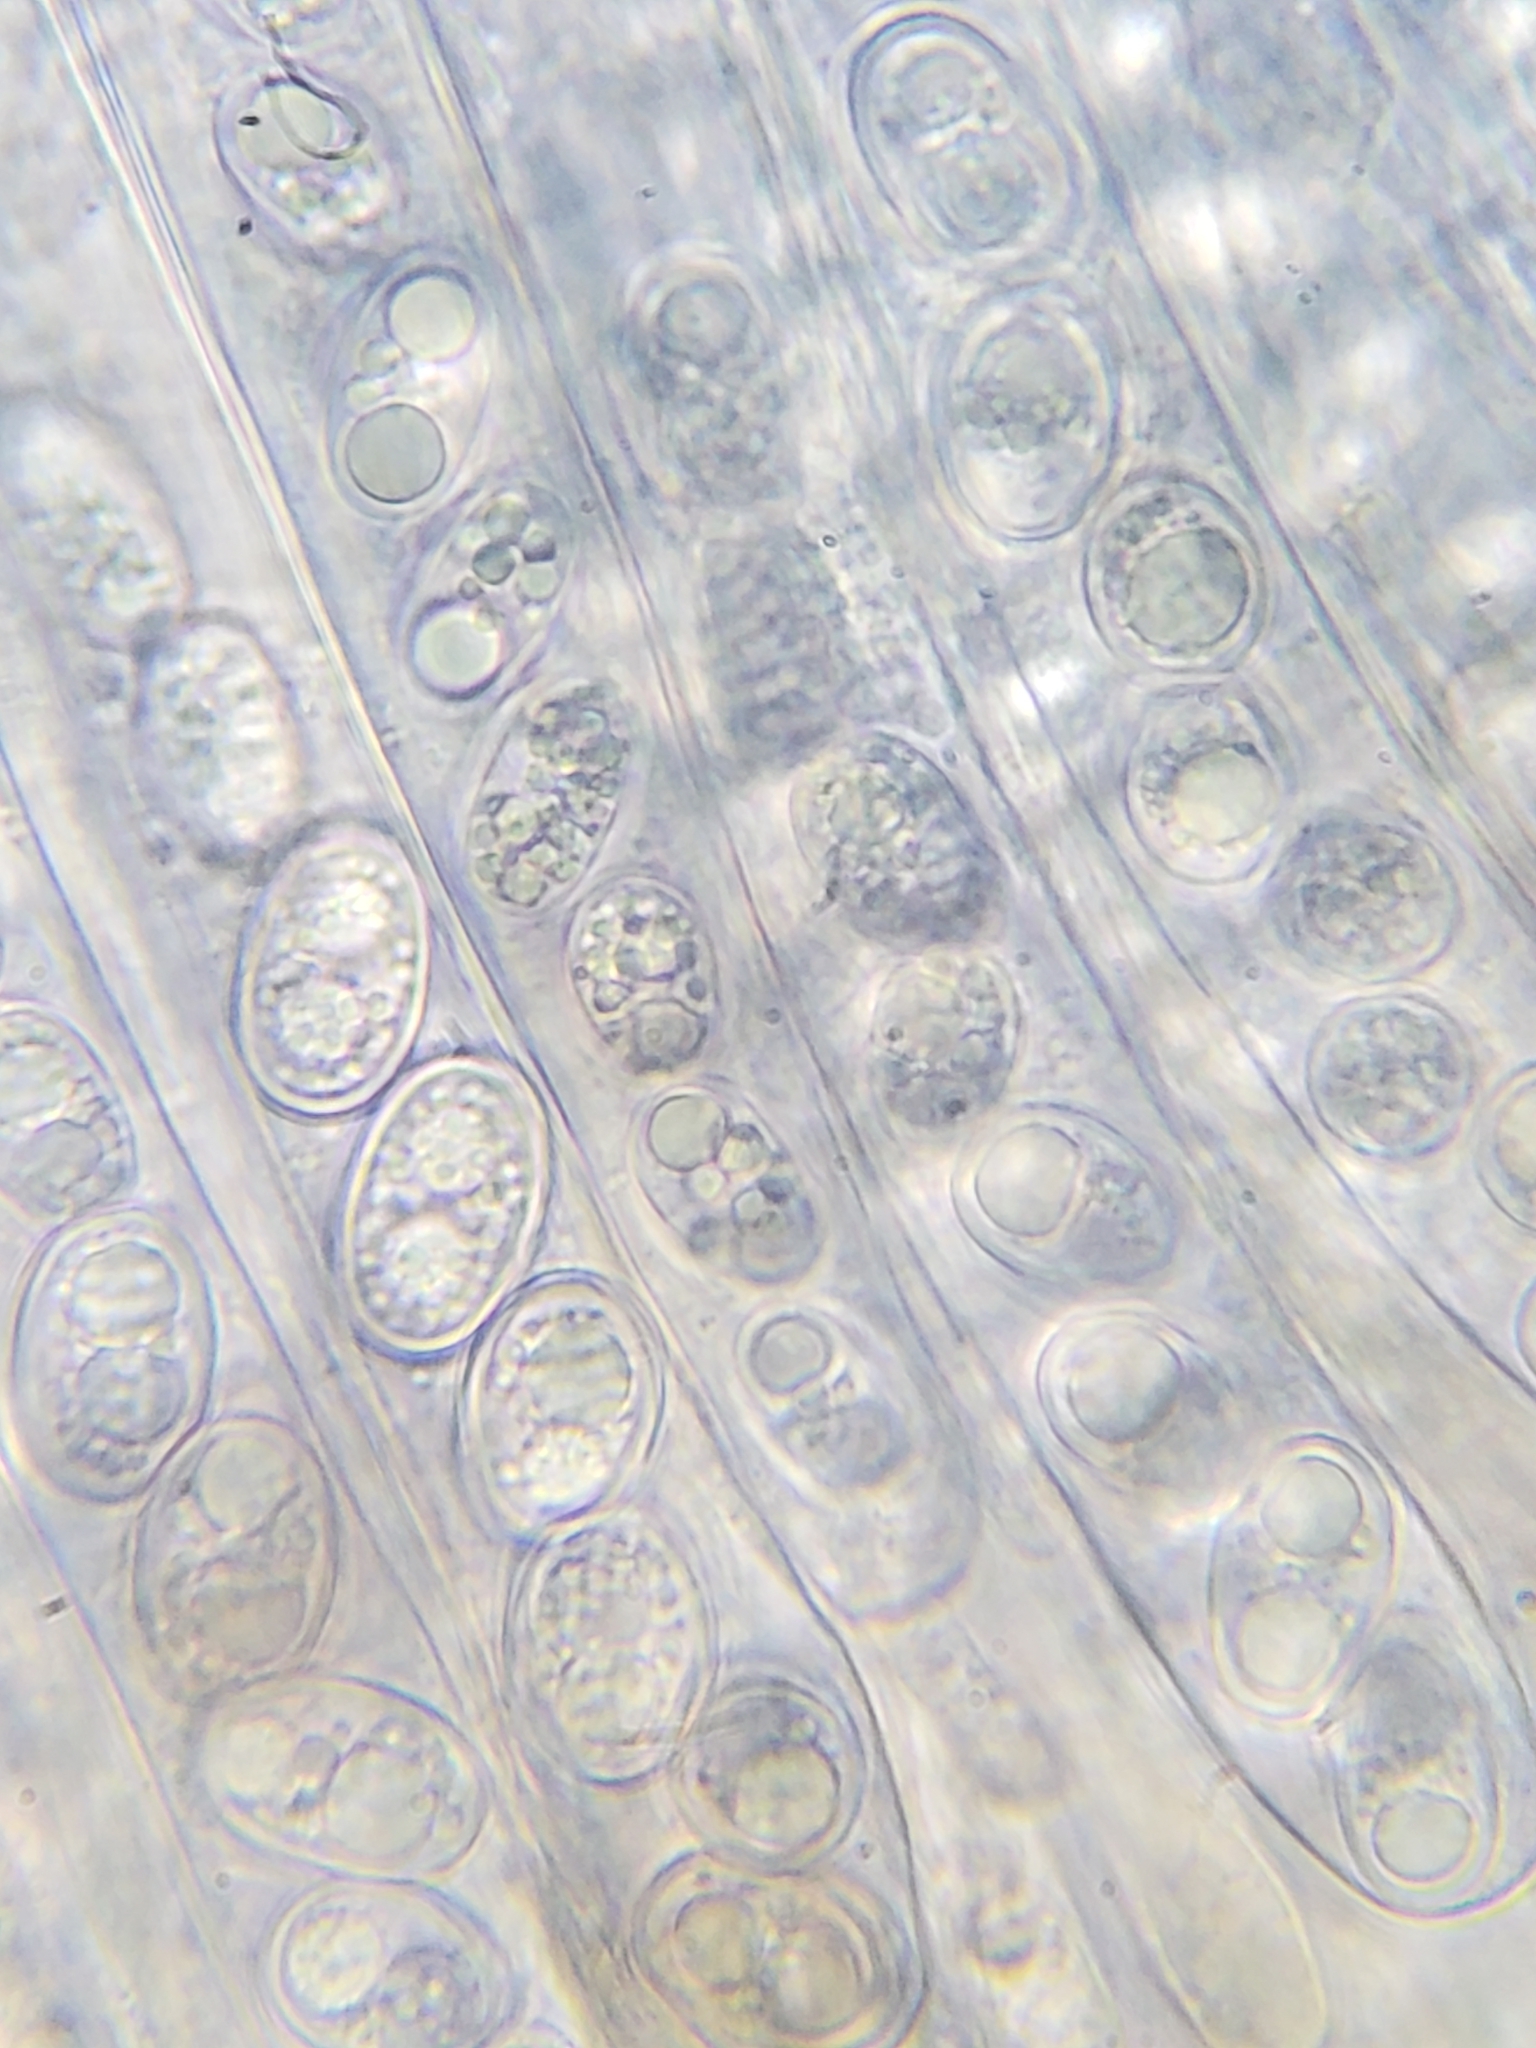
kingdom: Fungi
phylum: Ascomycota
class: Pezizomycetes
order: Pezizales
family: Pezizaceae
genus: Adelphella
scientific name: Adelphella babingtonii
